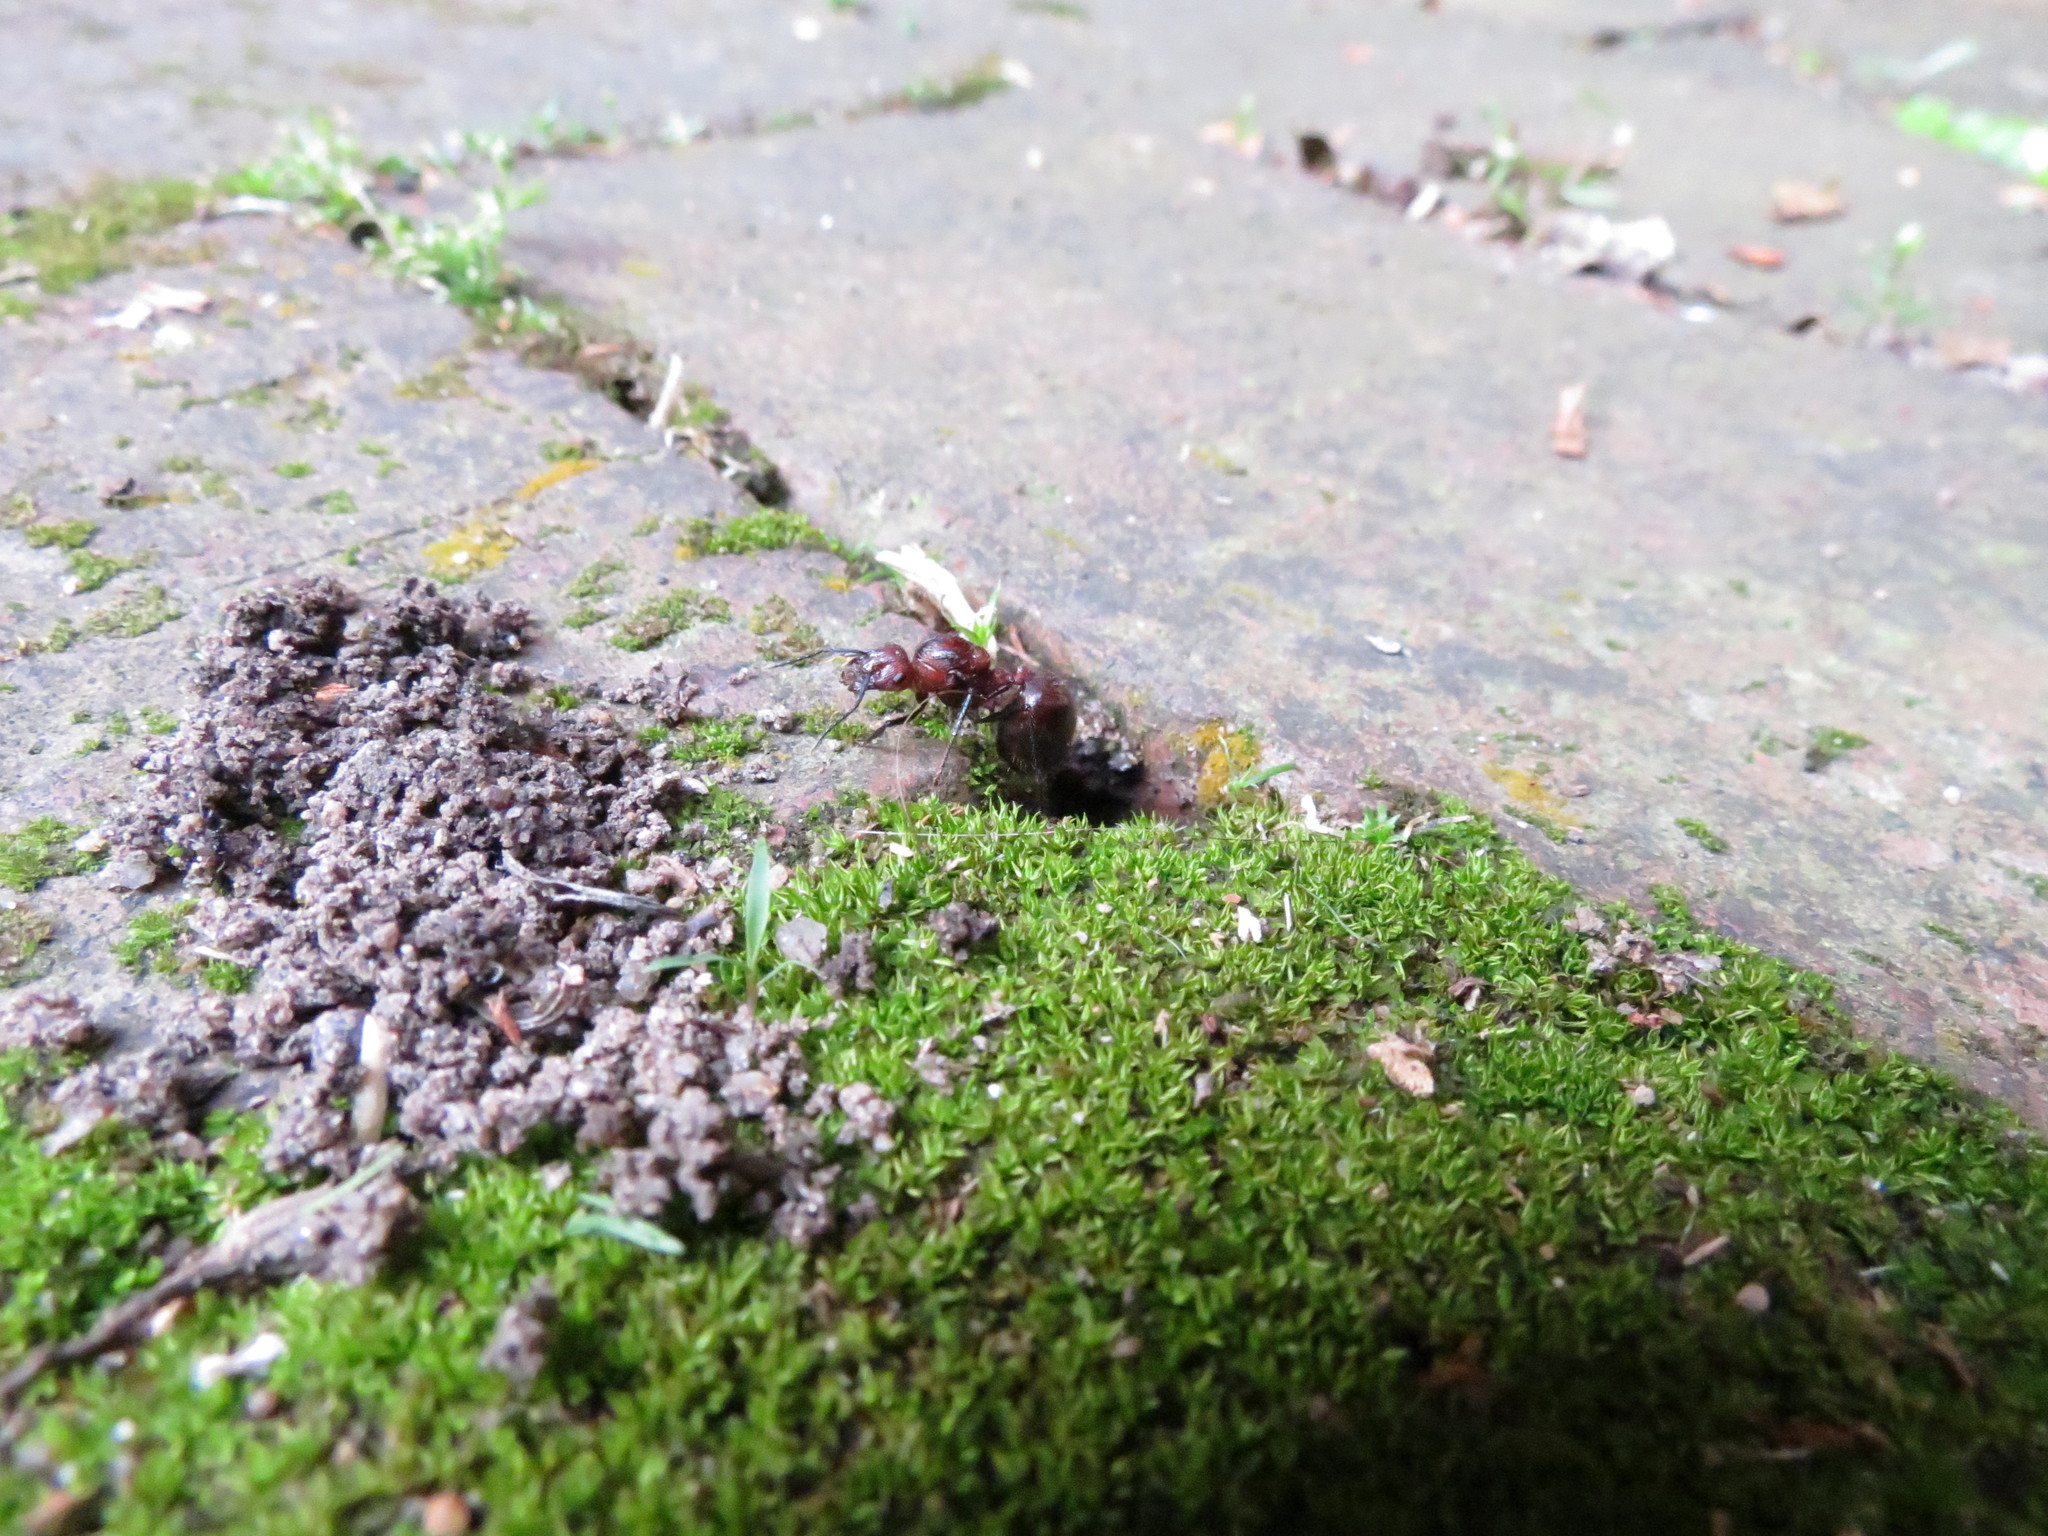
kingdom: Animalia
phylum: Arthropoda
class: Insecta
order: Hymenoptera
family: Formicidae
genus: Myrmicaria
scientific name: Myrmicaria natalensis
